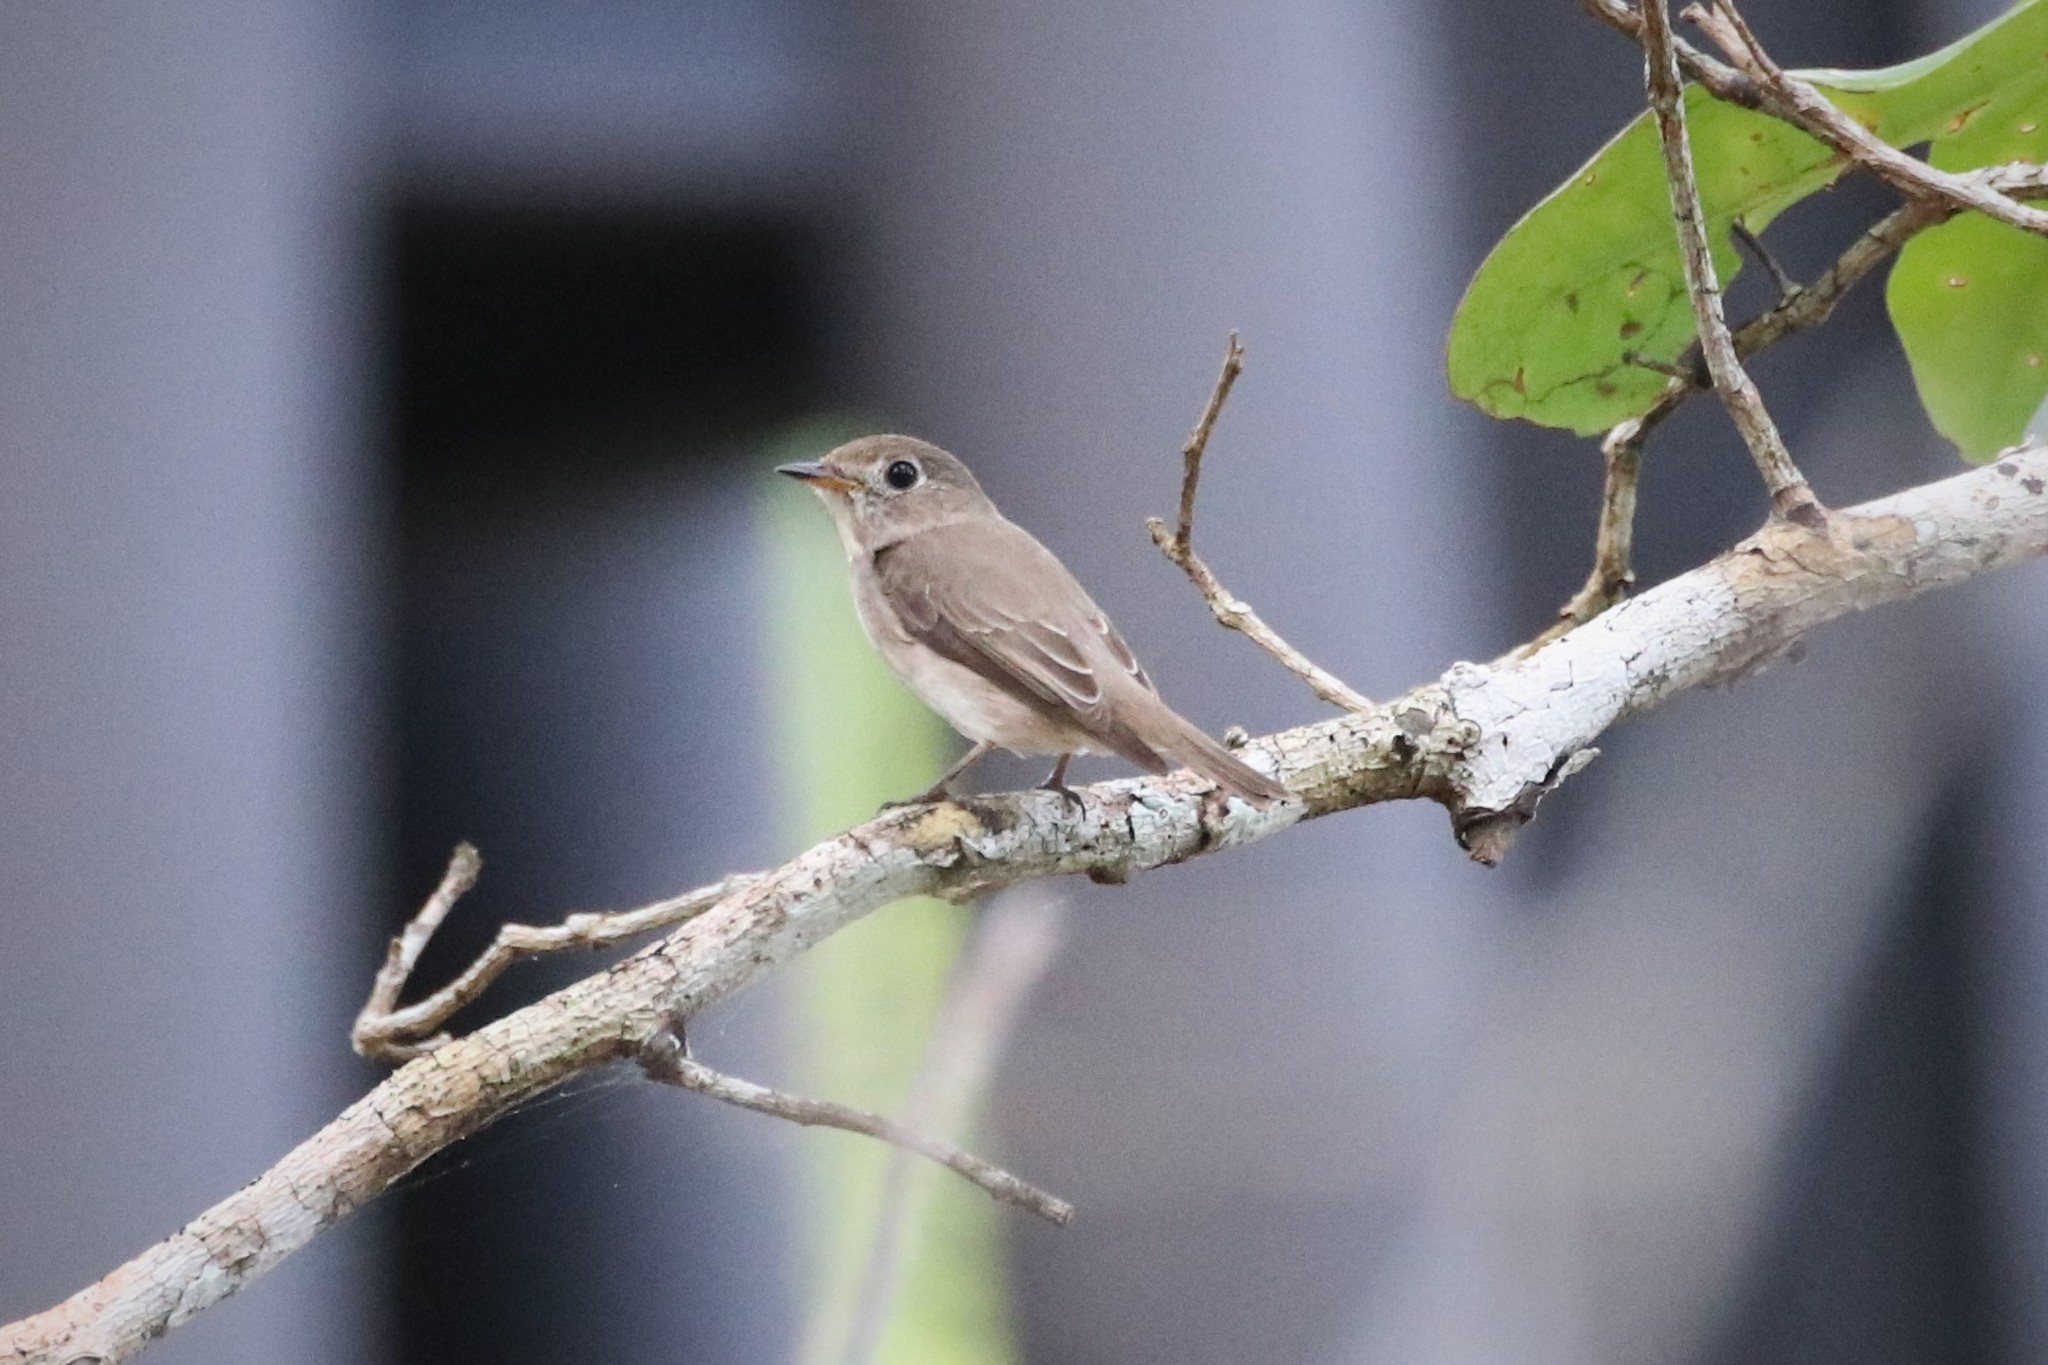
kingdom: Animalia
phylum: Chordata
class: Aves
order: Passeriformes
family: Muscicapidae
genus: Muscicapa
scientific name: Muscicapa latirostris
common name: Asian brown flycatcher
